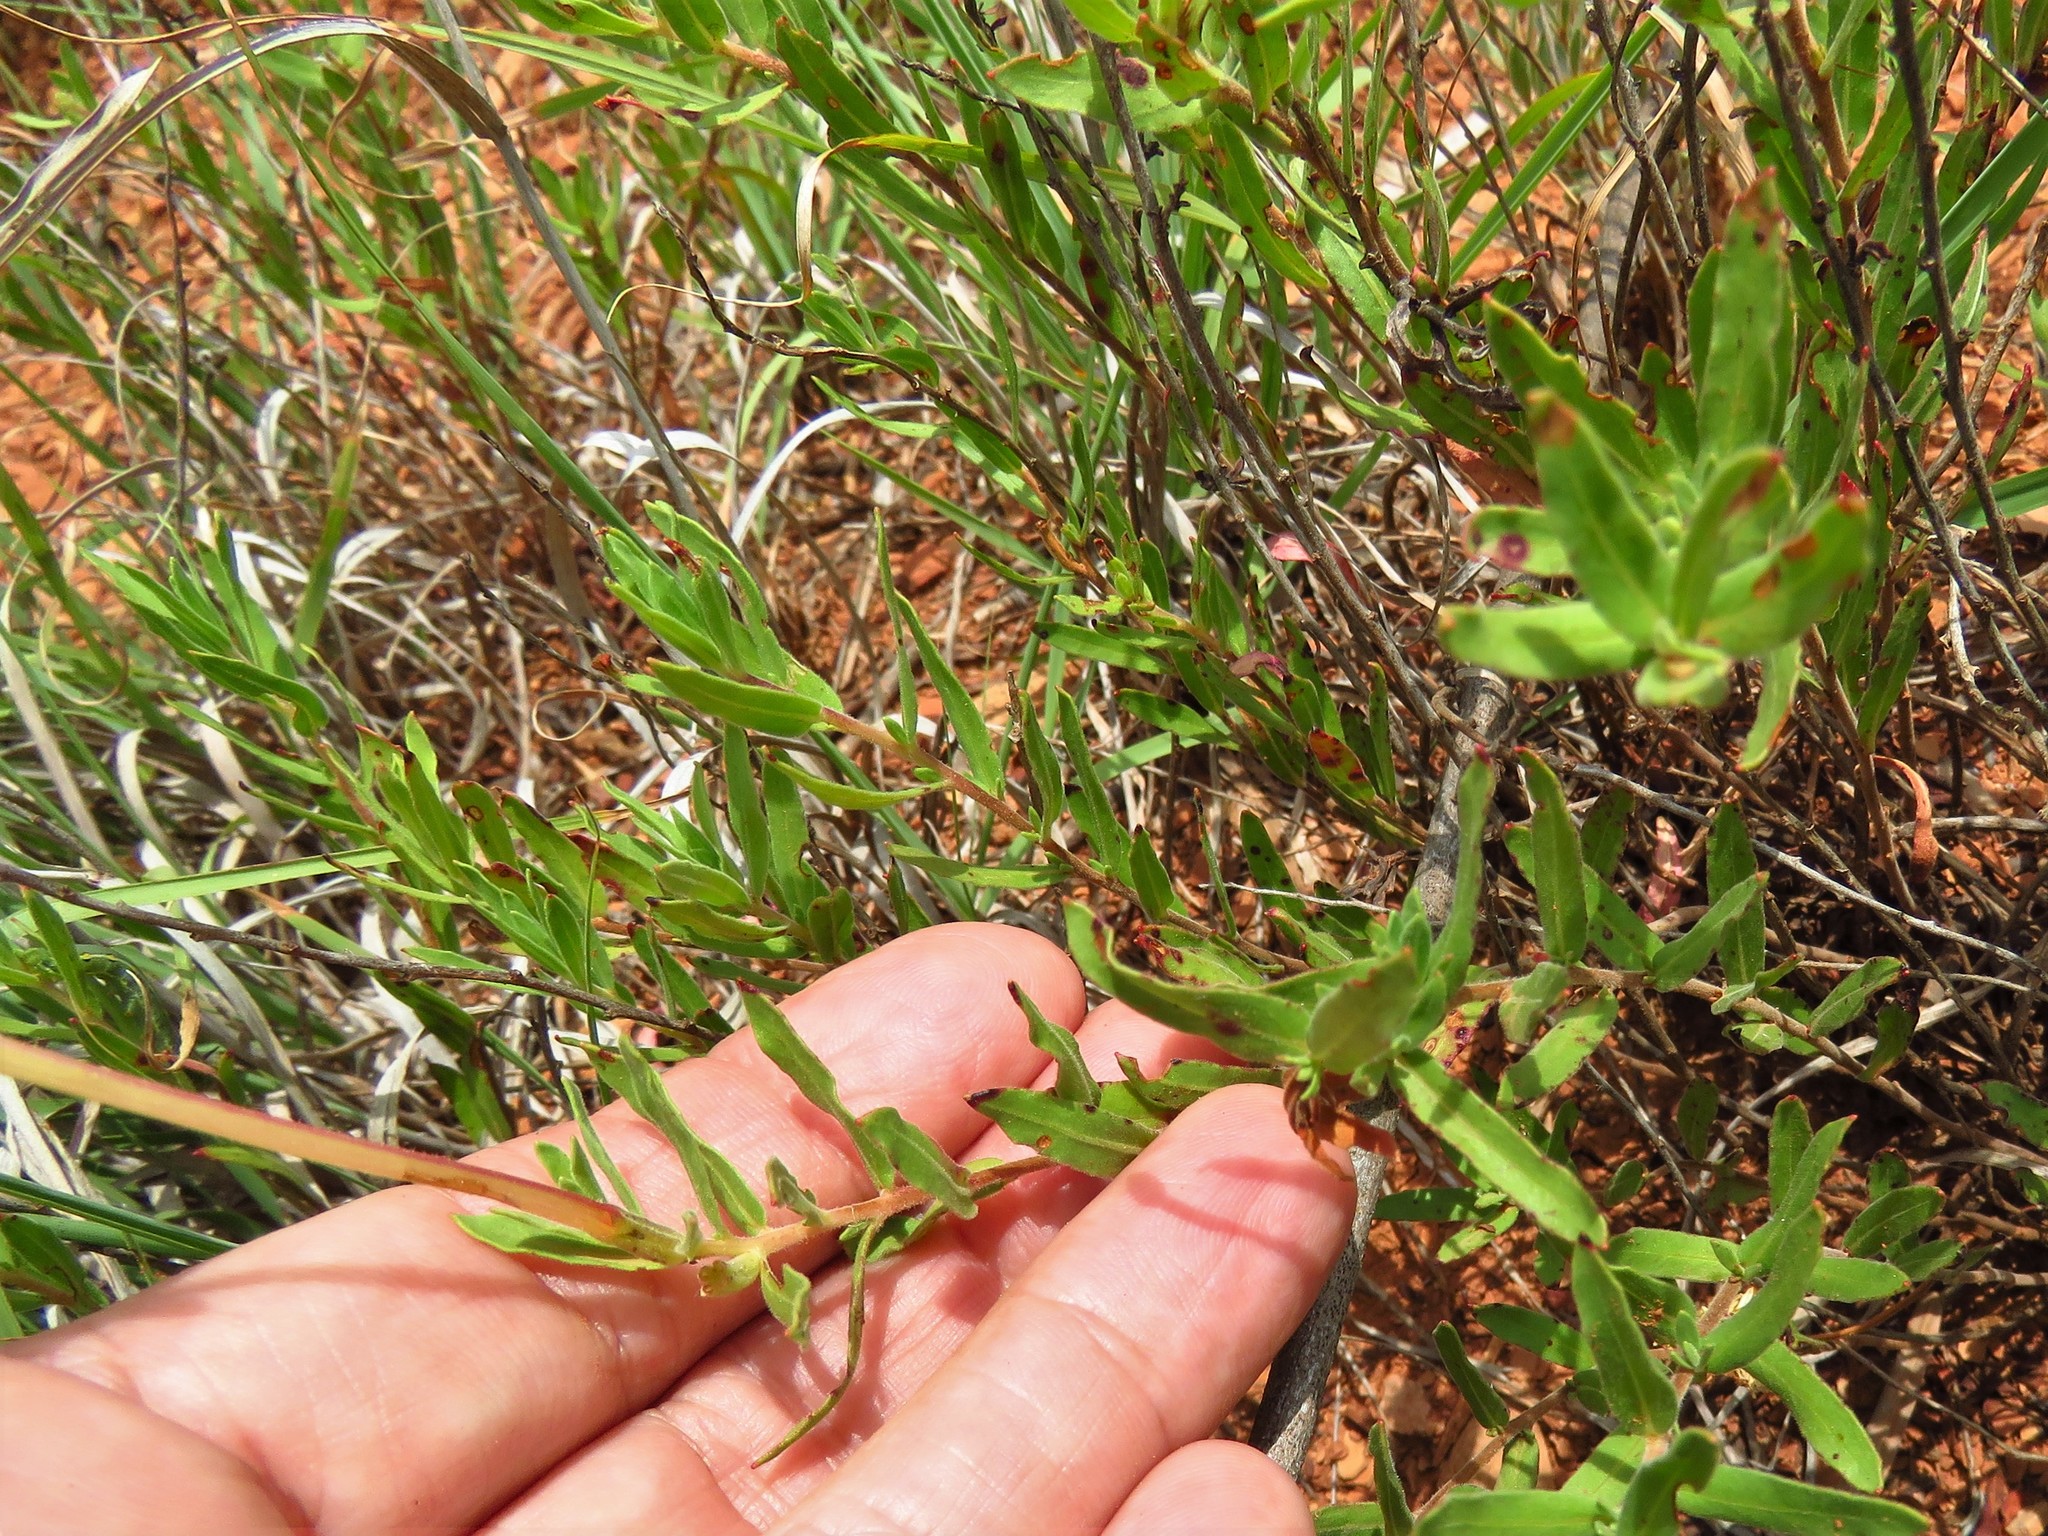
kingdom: Plantae
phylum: Tracheophyta
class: Magnoliopsida
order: Myrtales
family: Onagraceae
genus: Oenothera
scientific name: Oenothera hartwegii
